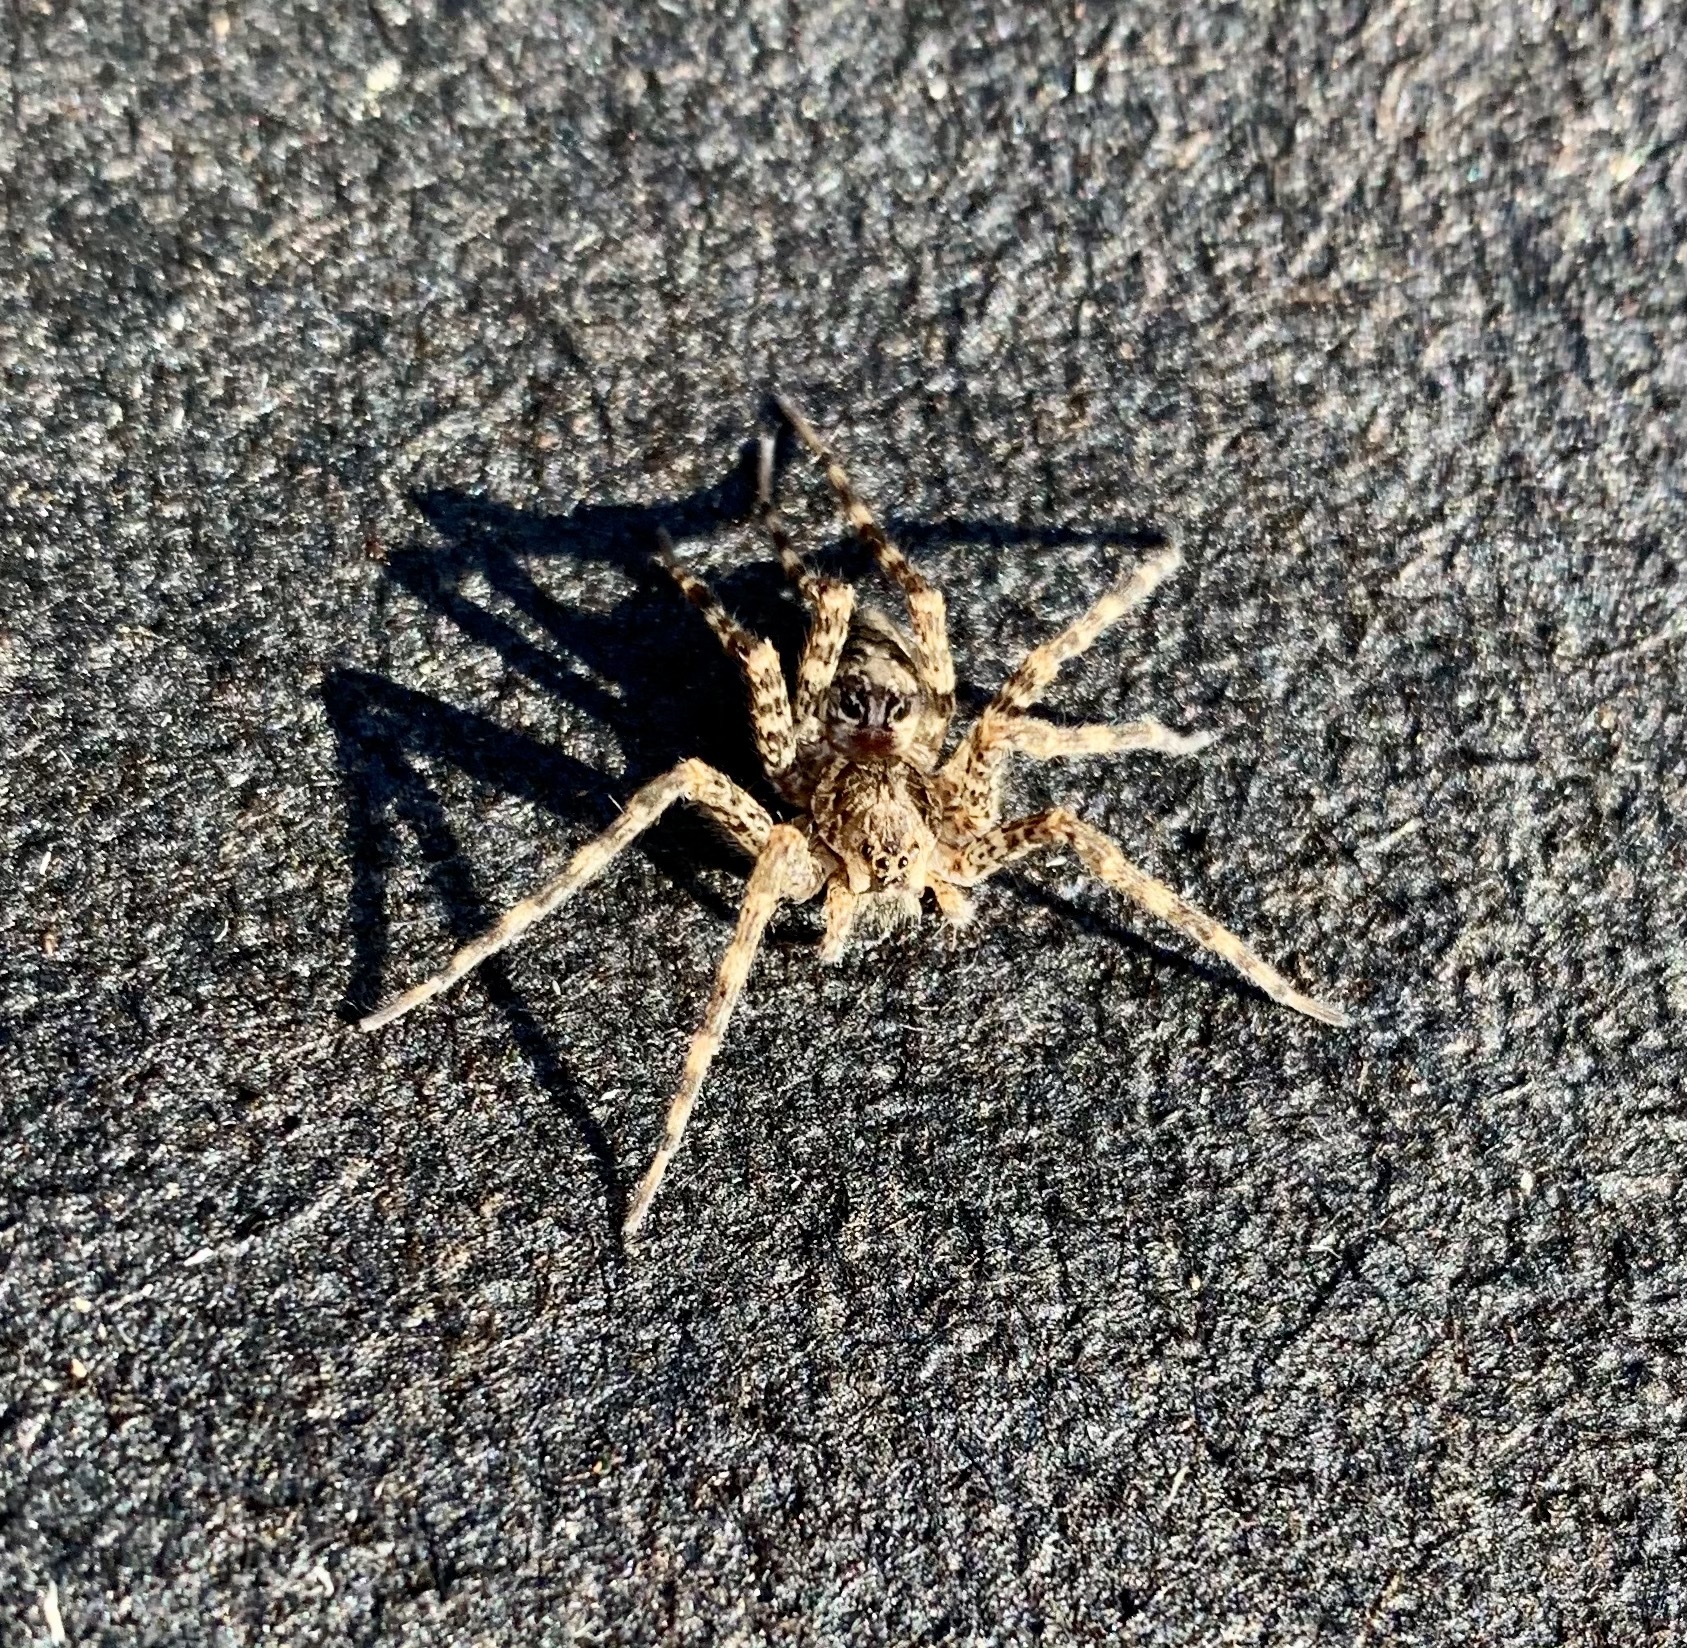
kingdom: Animalia
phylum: Arthropoda
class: Arachnida
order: Araneae
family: Pisauridae
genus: Dolomedes
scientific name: Dolomedes tenebrosus
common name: Dark fishing spider
